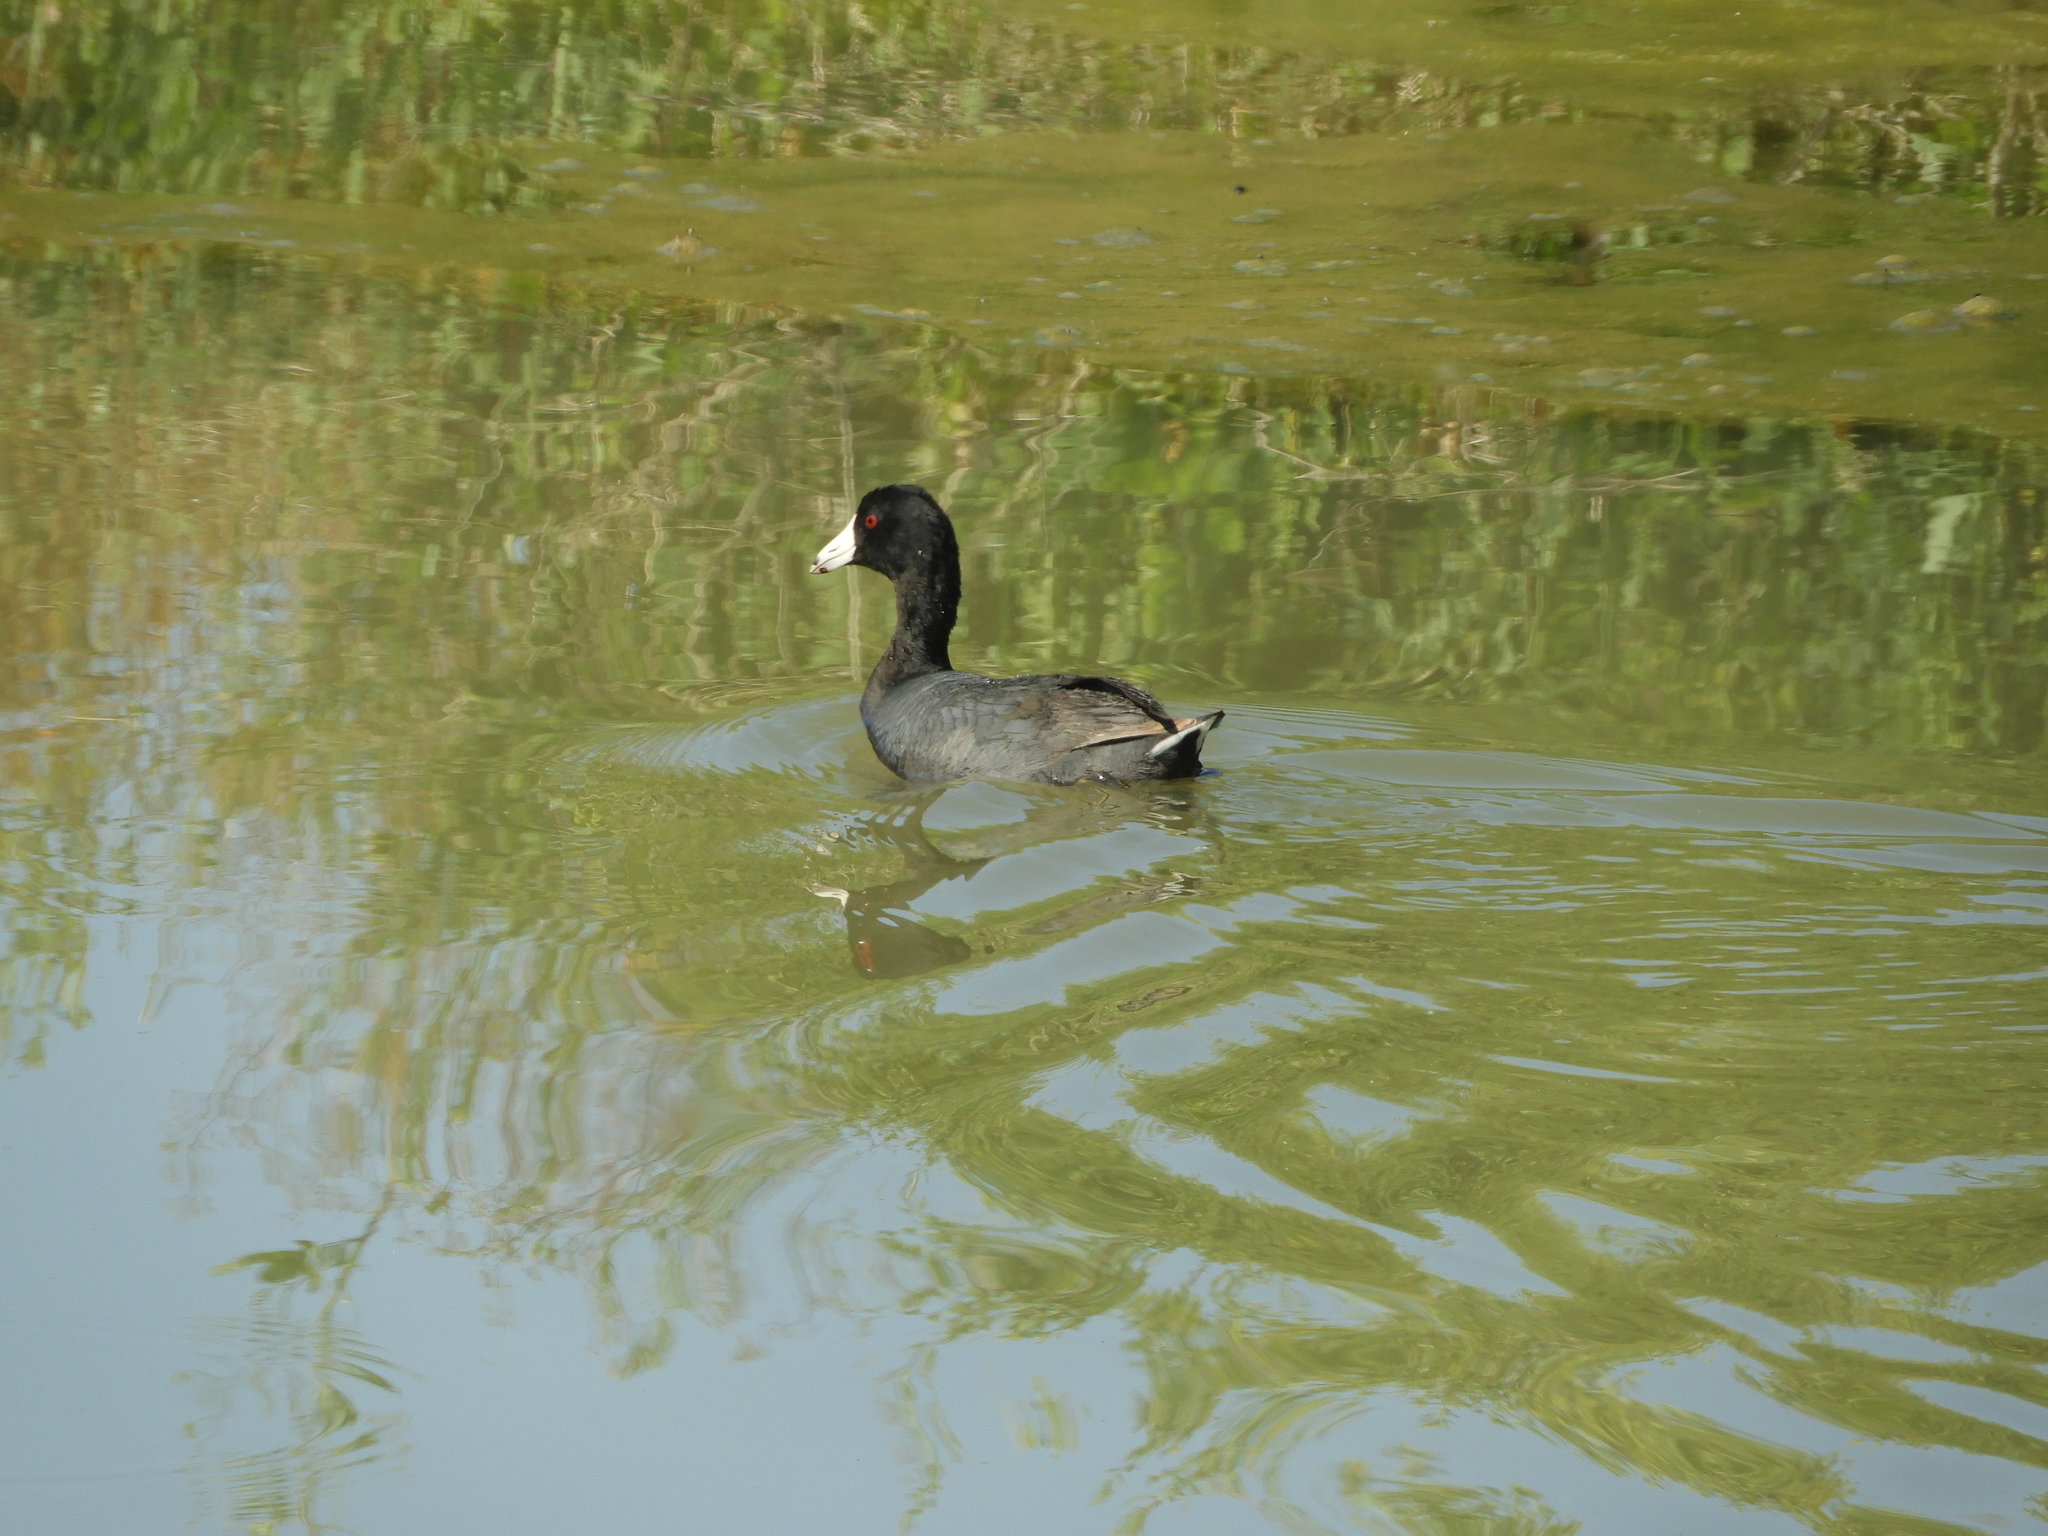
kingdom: Animalia
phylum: Chordata
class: Aves
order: Gruiformes
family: Rallidae
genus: Fulica
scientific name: Fulica americana
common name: American coot
